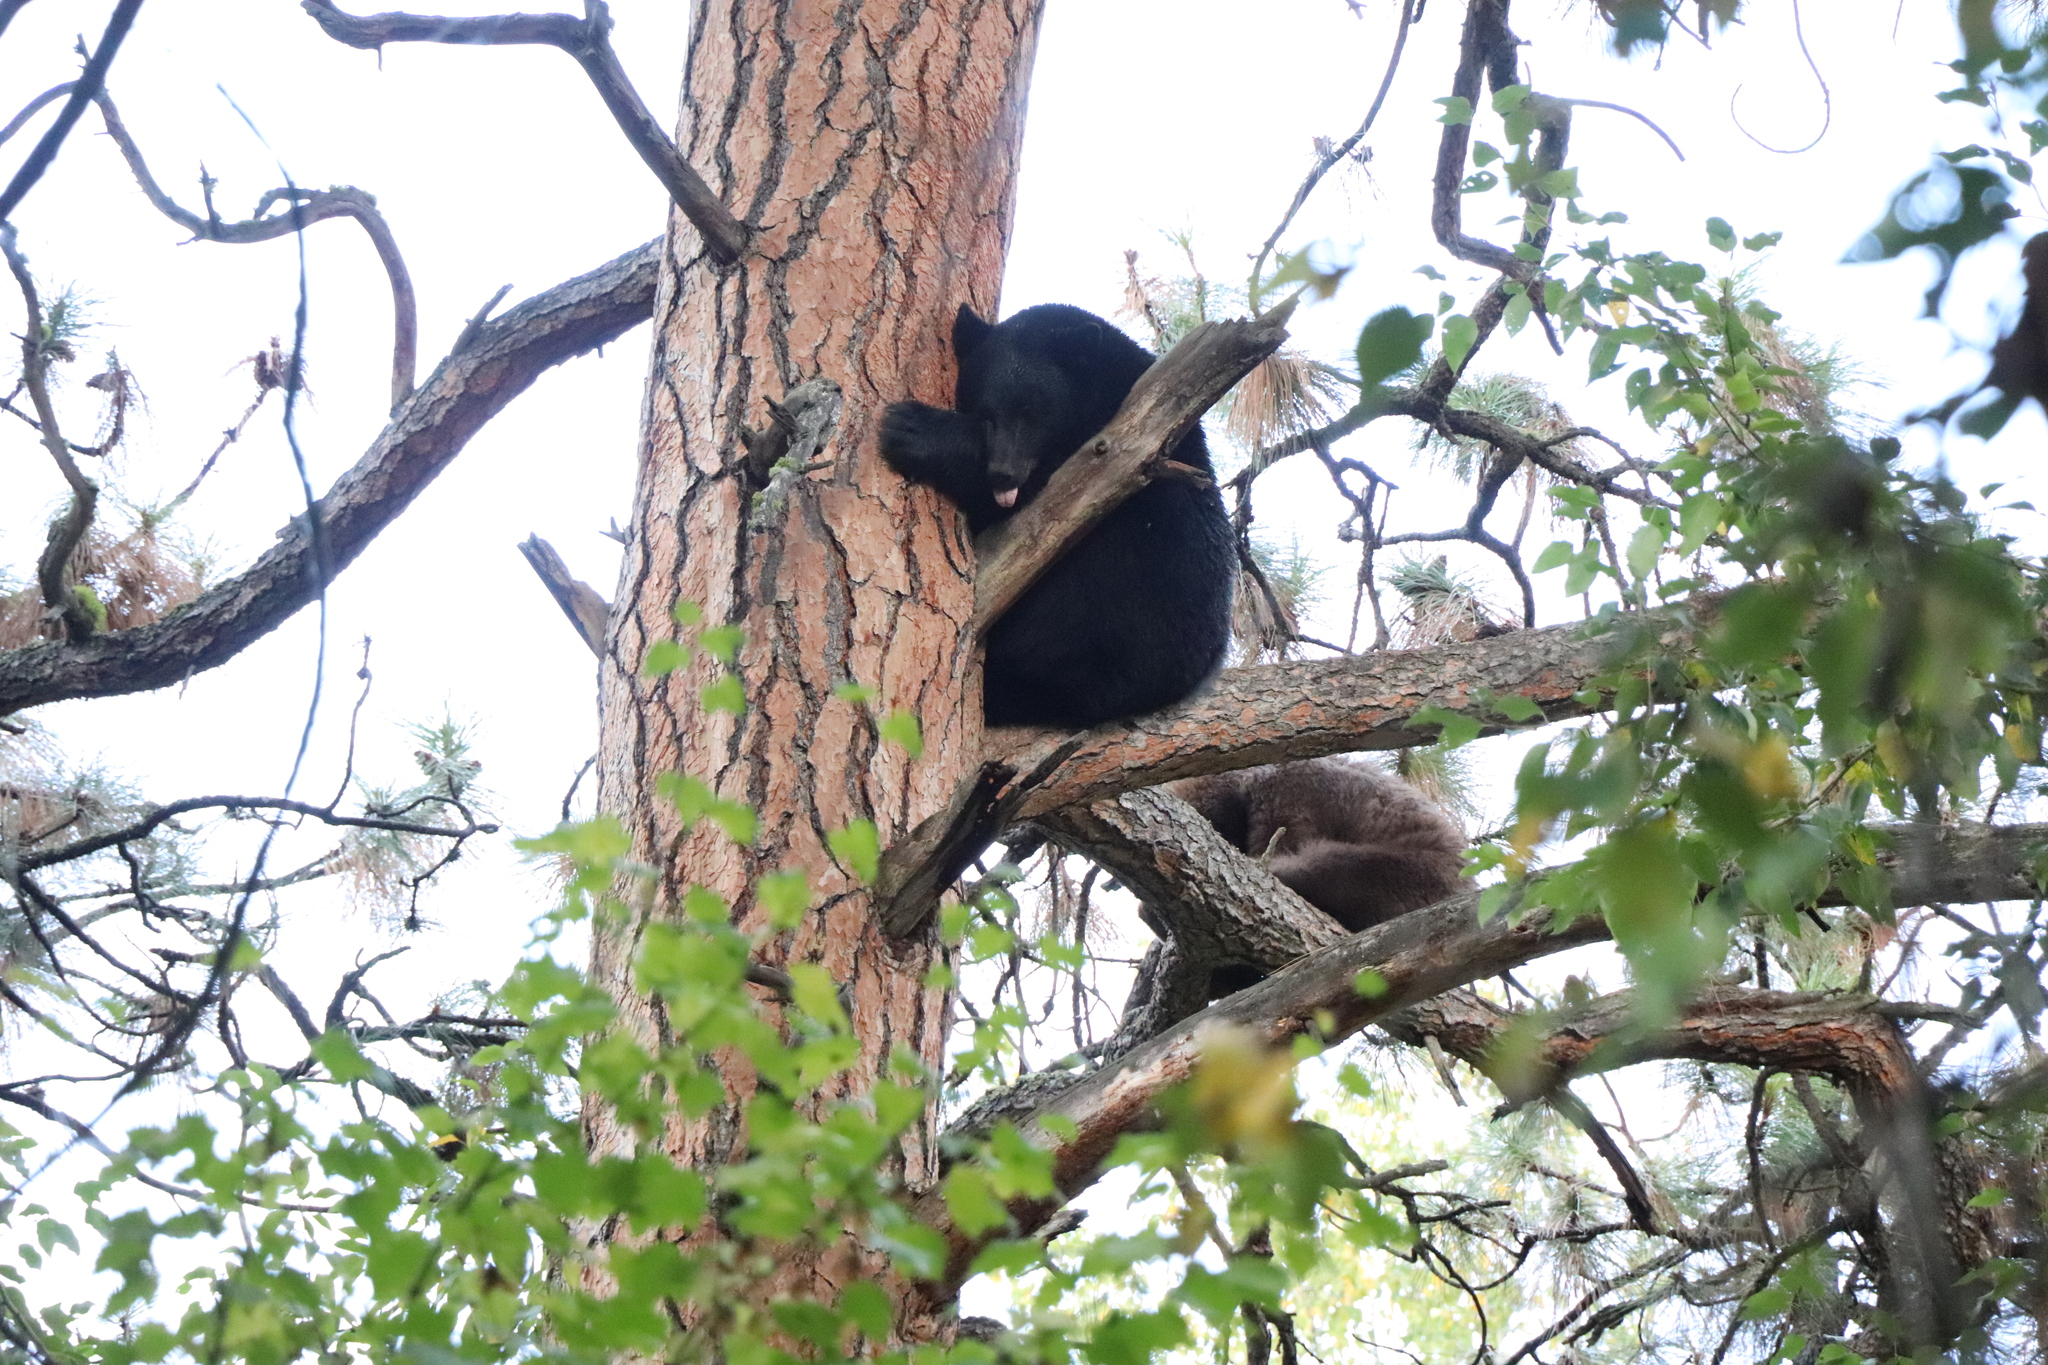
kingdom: Animalia
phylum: Chordata
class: Mammalia
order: Carnivora
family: Ursidae
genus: Ursus
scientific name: Ursus americanus
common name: American black bear
